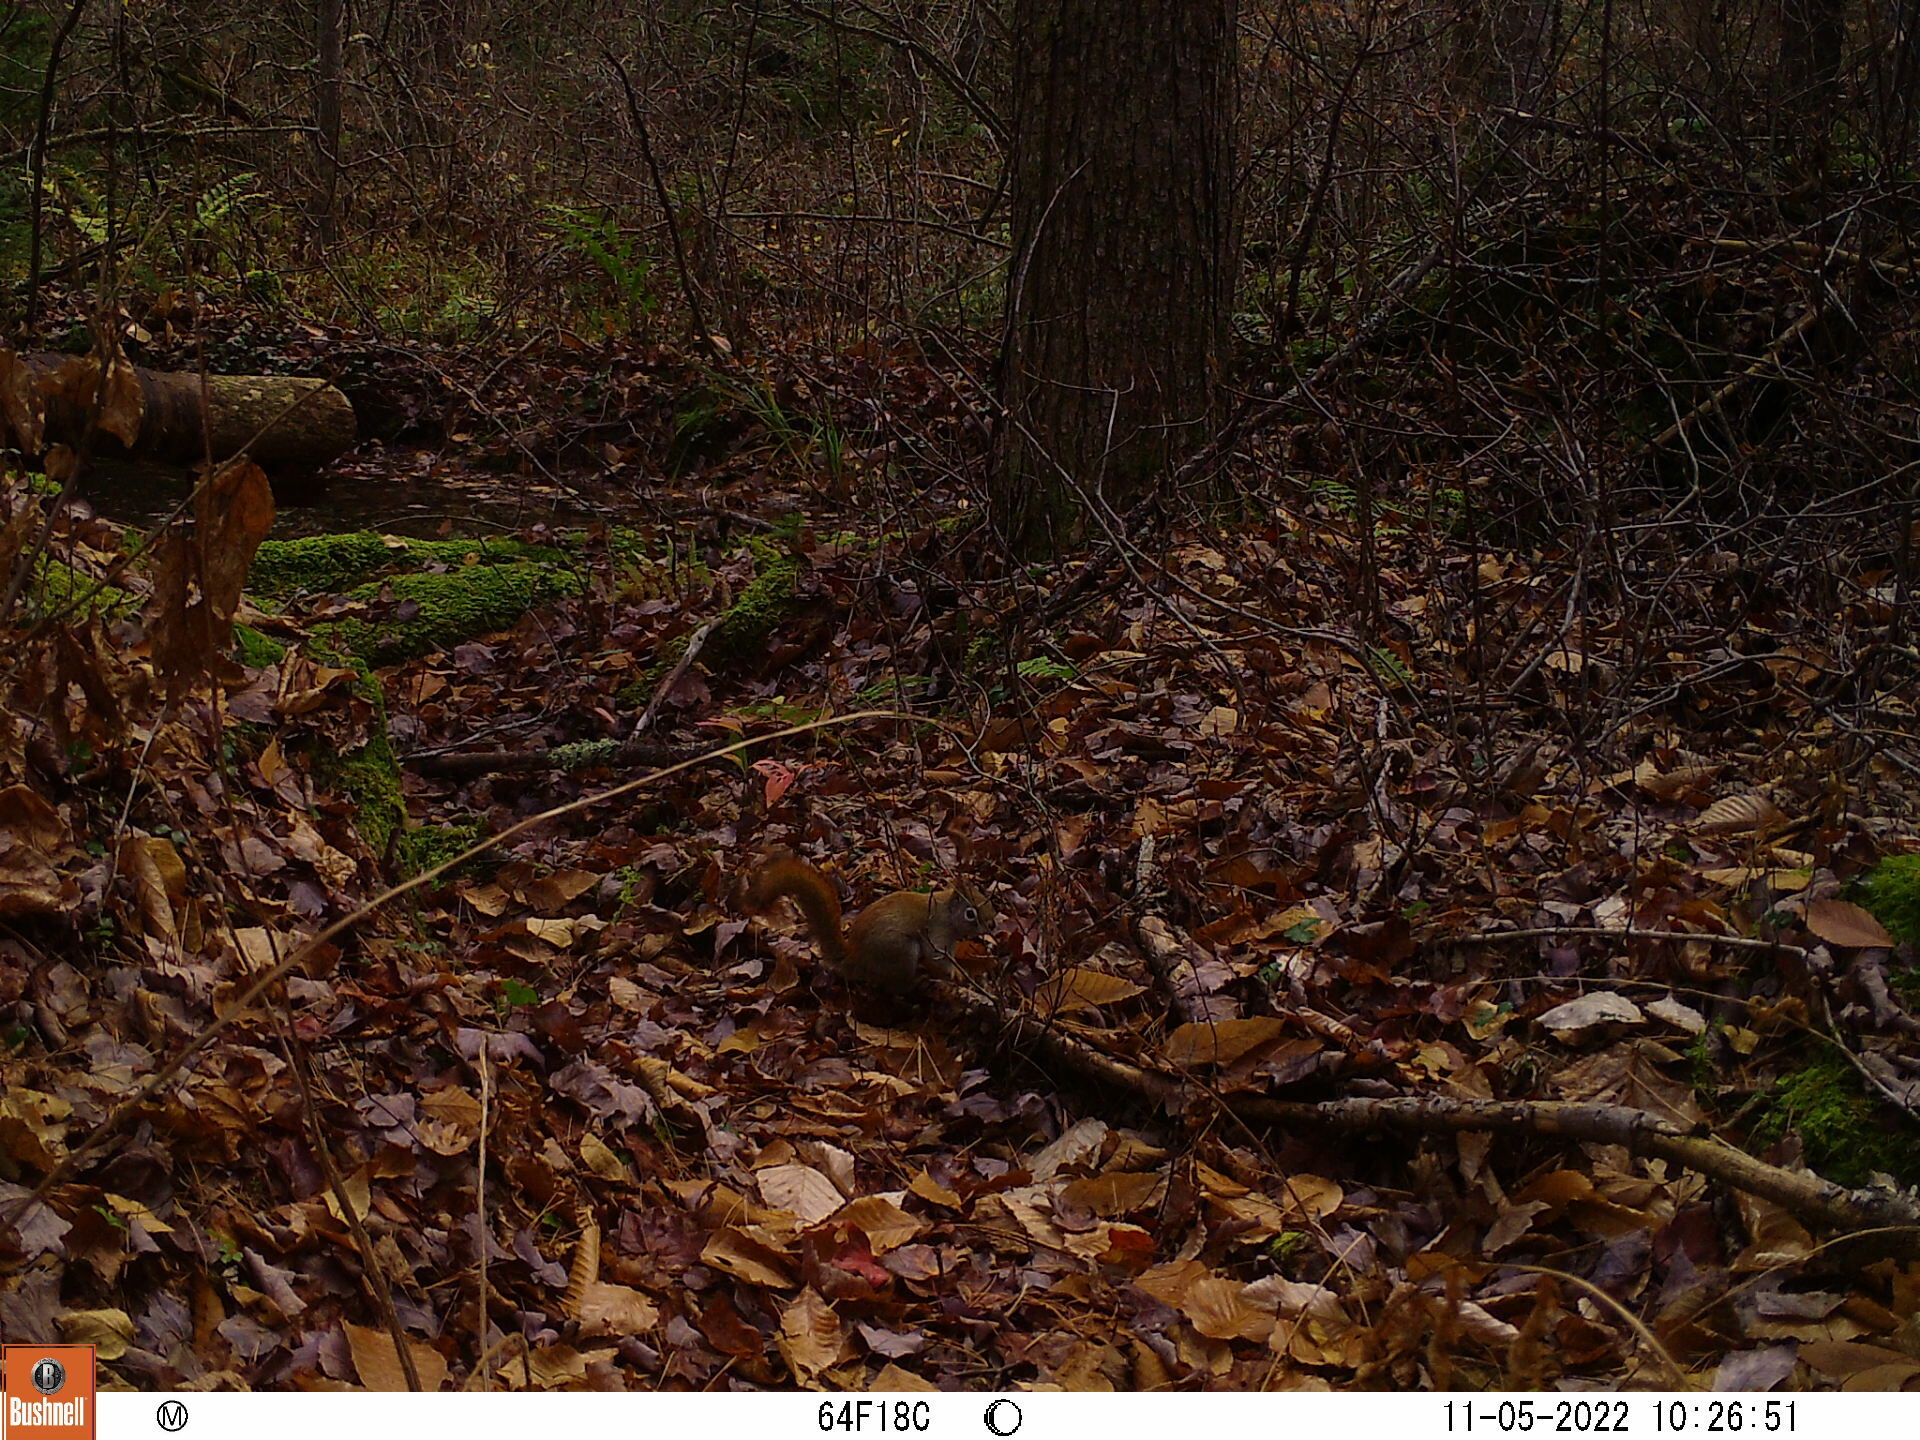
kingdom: Animalia
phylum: Chordata
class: Mammalia
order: Rodentia
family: Sciuridae
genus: Tamiasciurus
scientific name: Tamiasciurus hudsonicus
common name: Red squirrel
